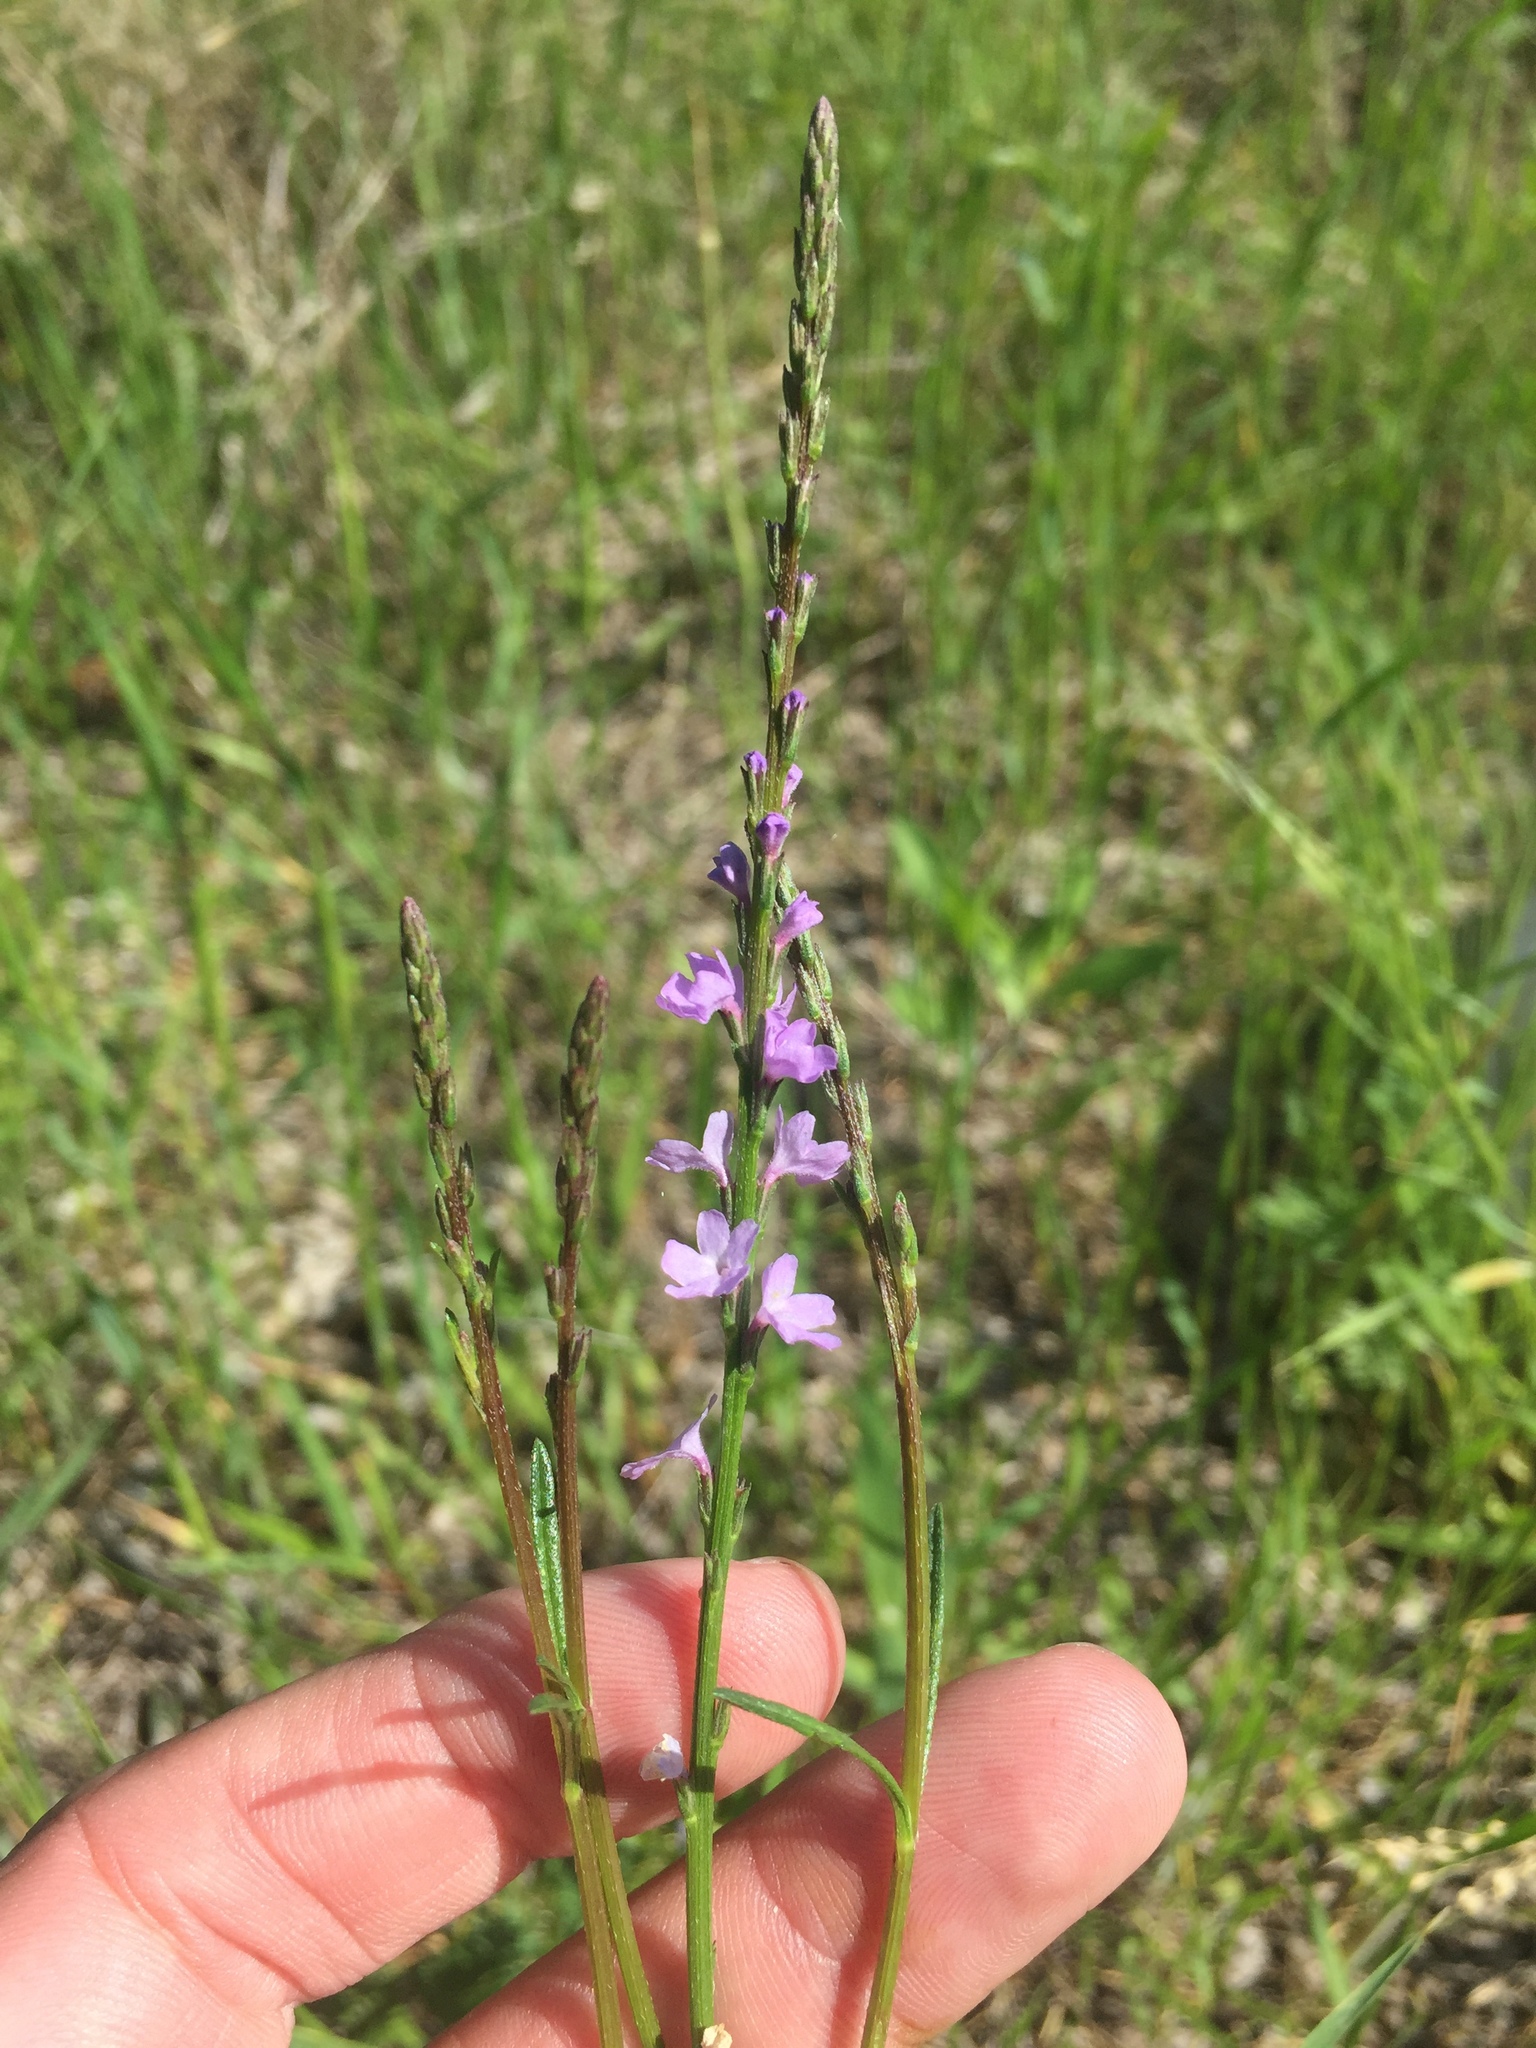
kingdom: Plantae
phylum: Tracheophyta
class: Magnoliopsida
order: Lamiales
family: Verbenaceae
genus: Verbena
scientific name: Verbena halei
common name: Texas vervain
